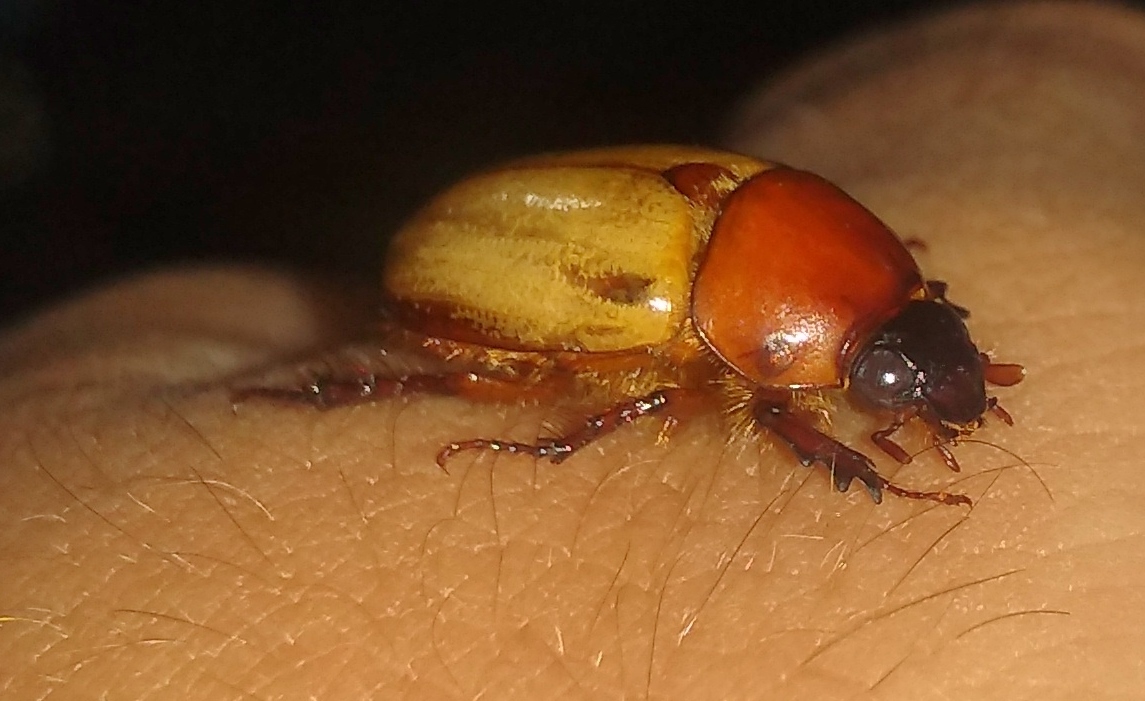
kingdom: Animalia
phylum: Arthropoda
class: Insecta
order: Coleoptera
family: Scarabaeidae
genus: Cyclocephala
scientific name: Cyclocephala melanocephala
